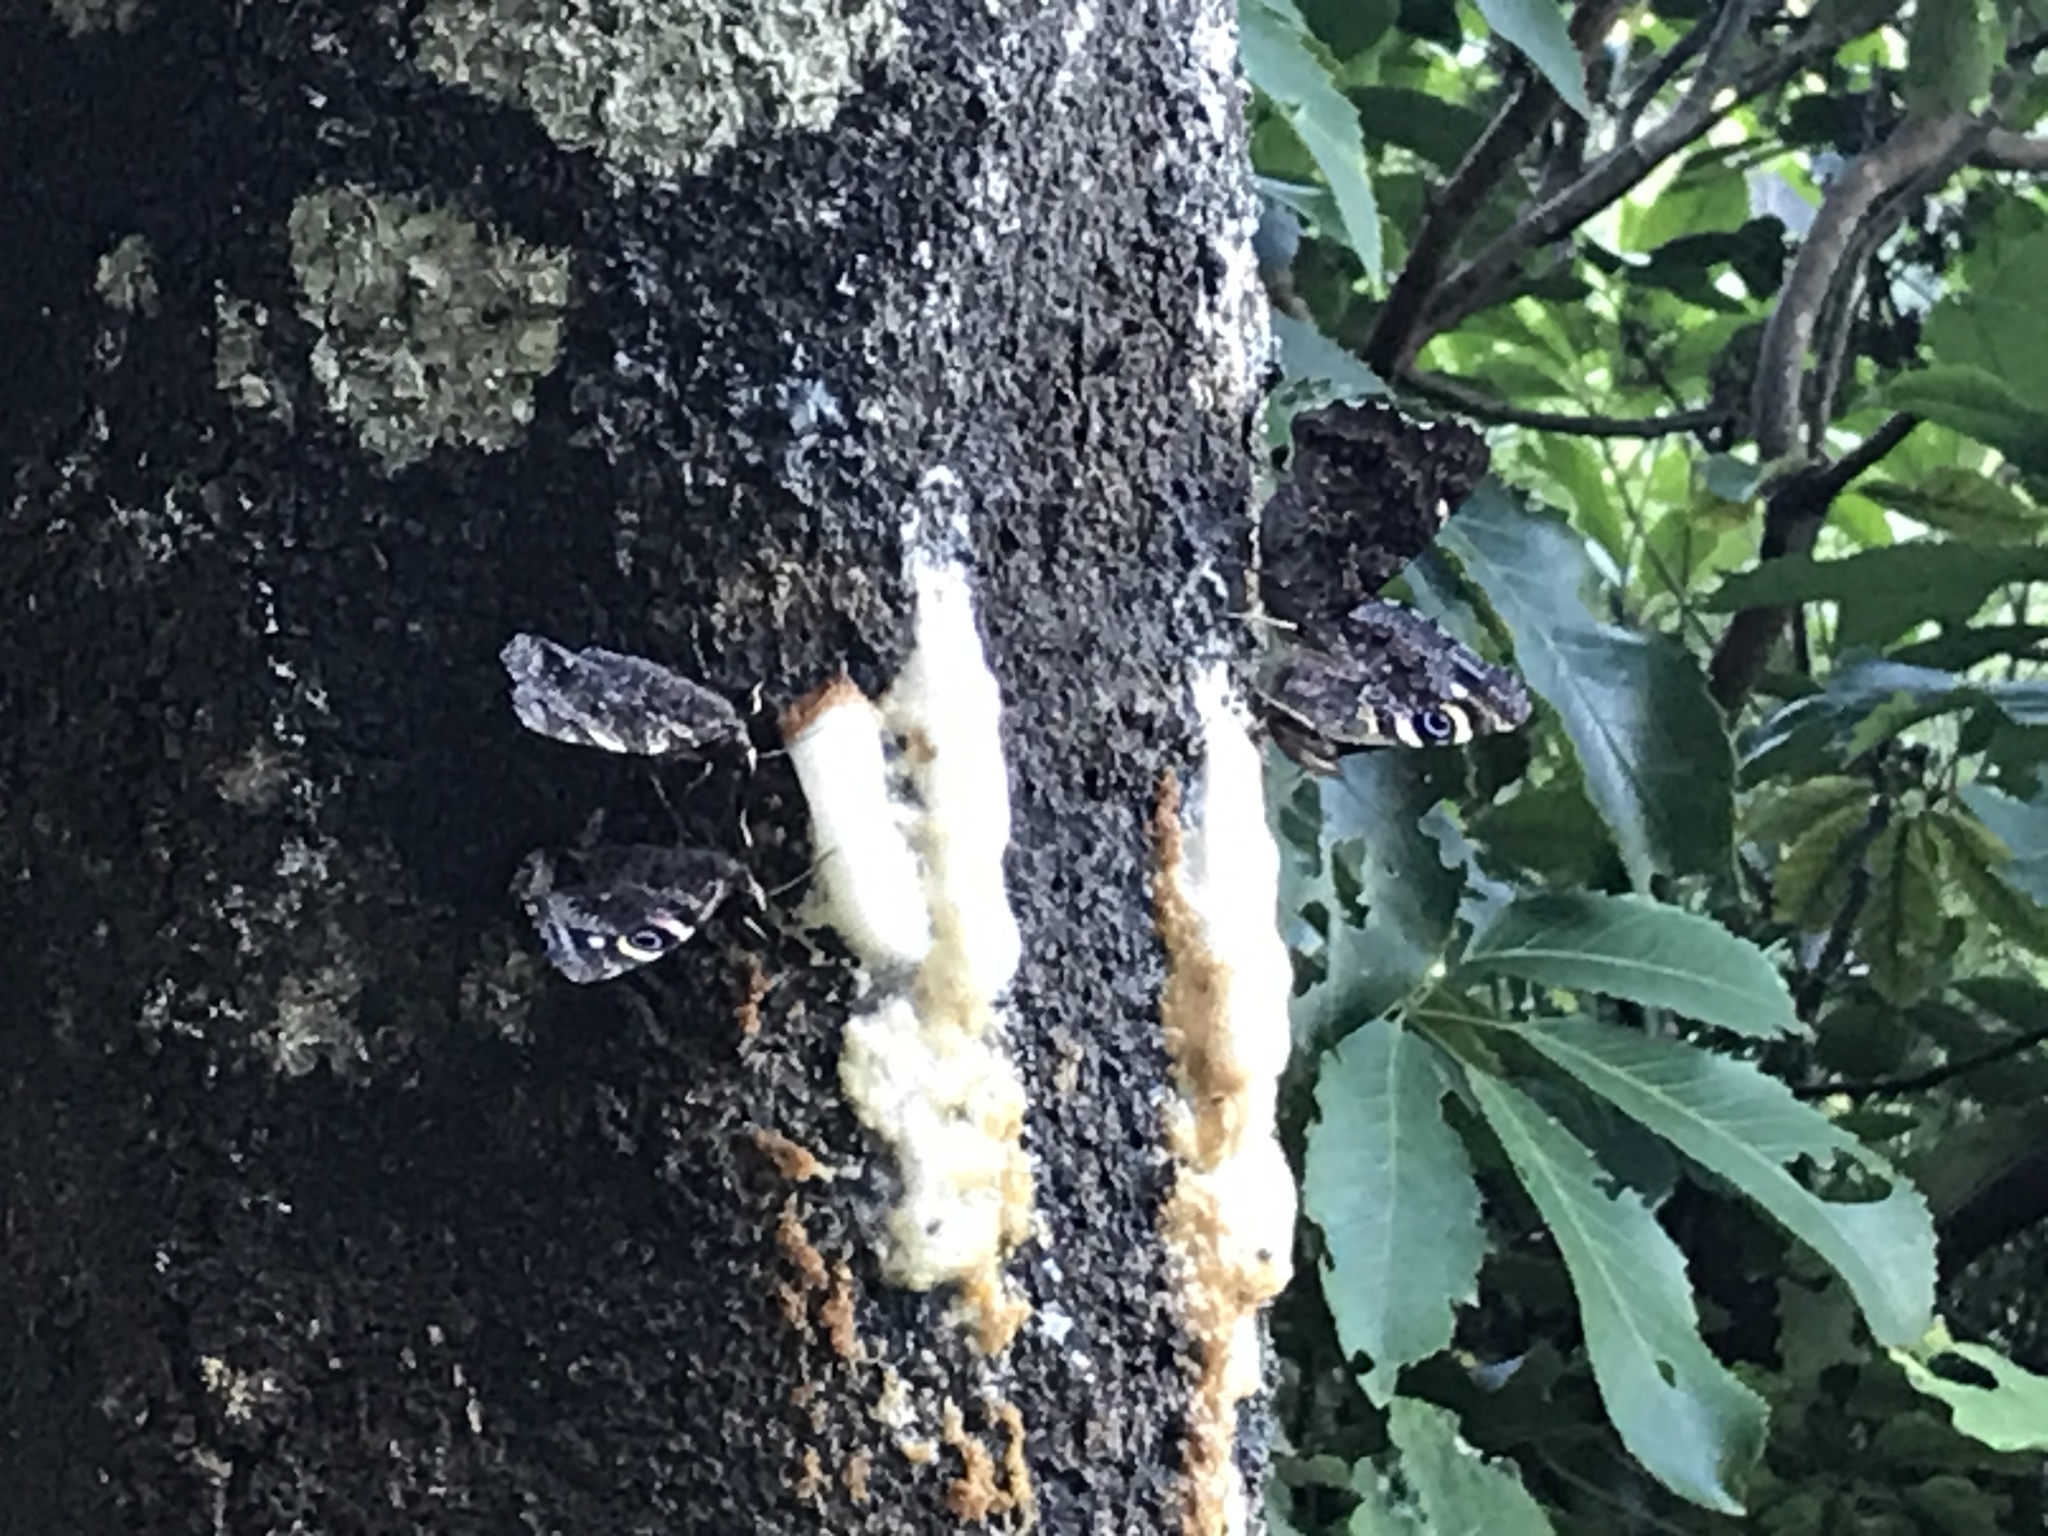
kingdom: Animalia
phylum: Arthropoda
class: Insecta
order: Lepidoptera
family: Nymphalidae
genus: Vanessa
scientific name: Vanessa gonerilla
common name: New zealand red admiral
